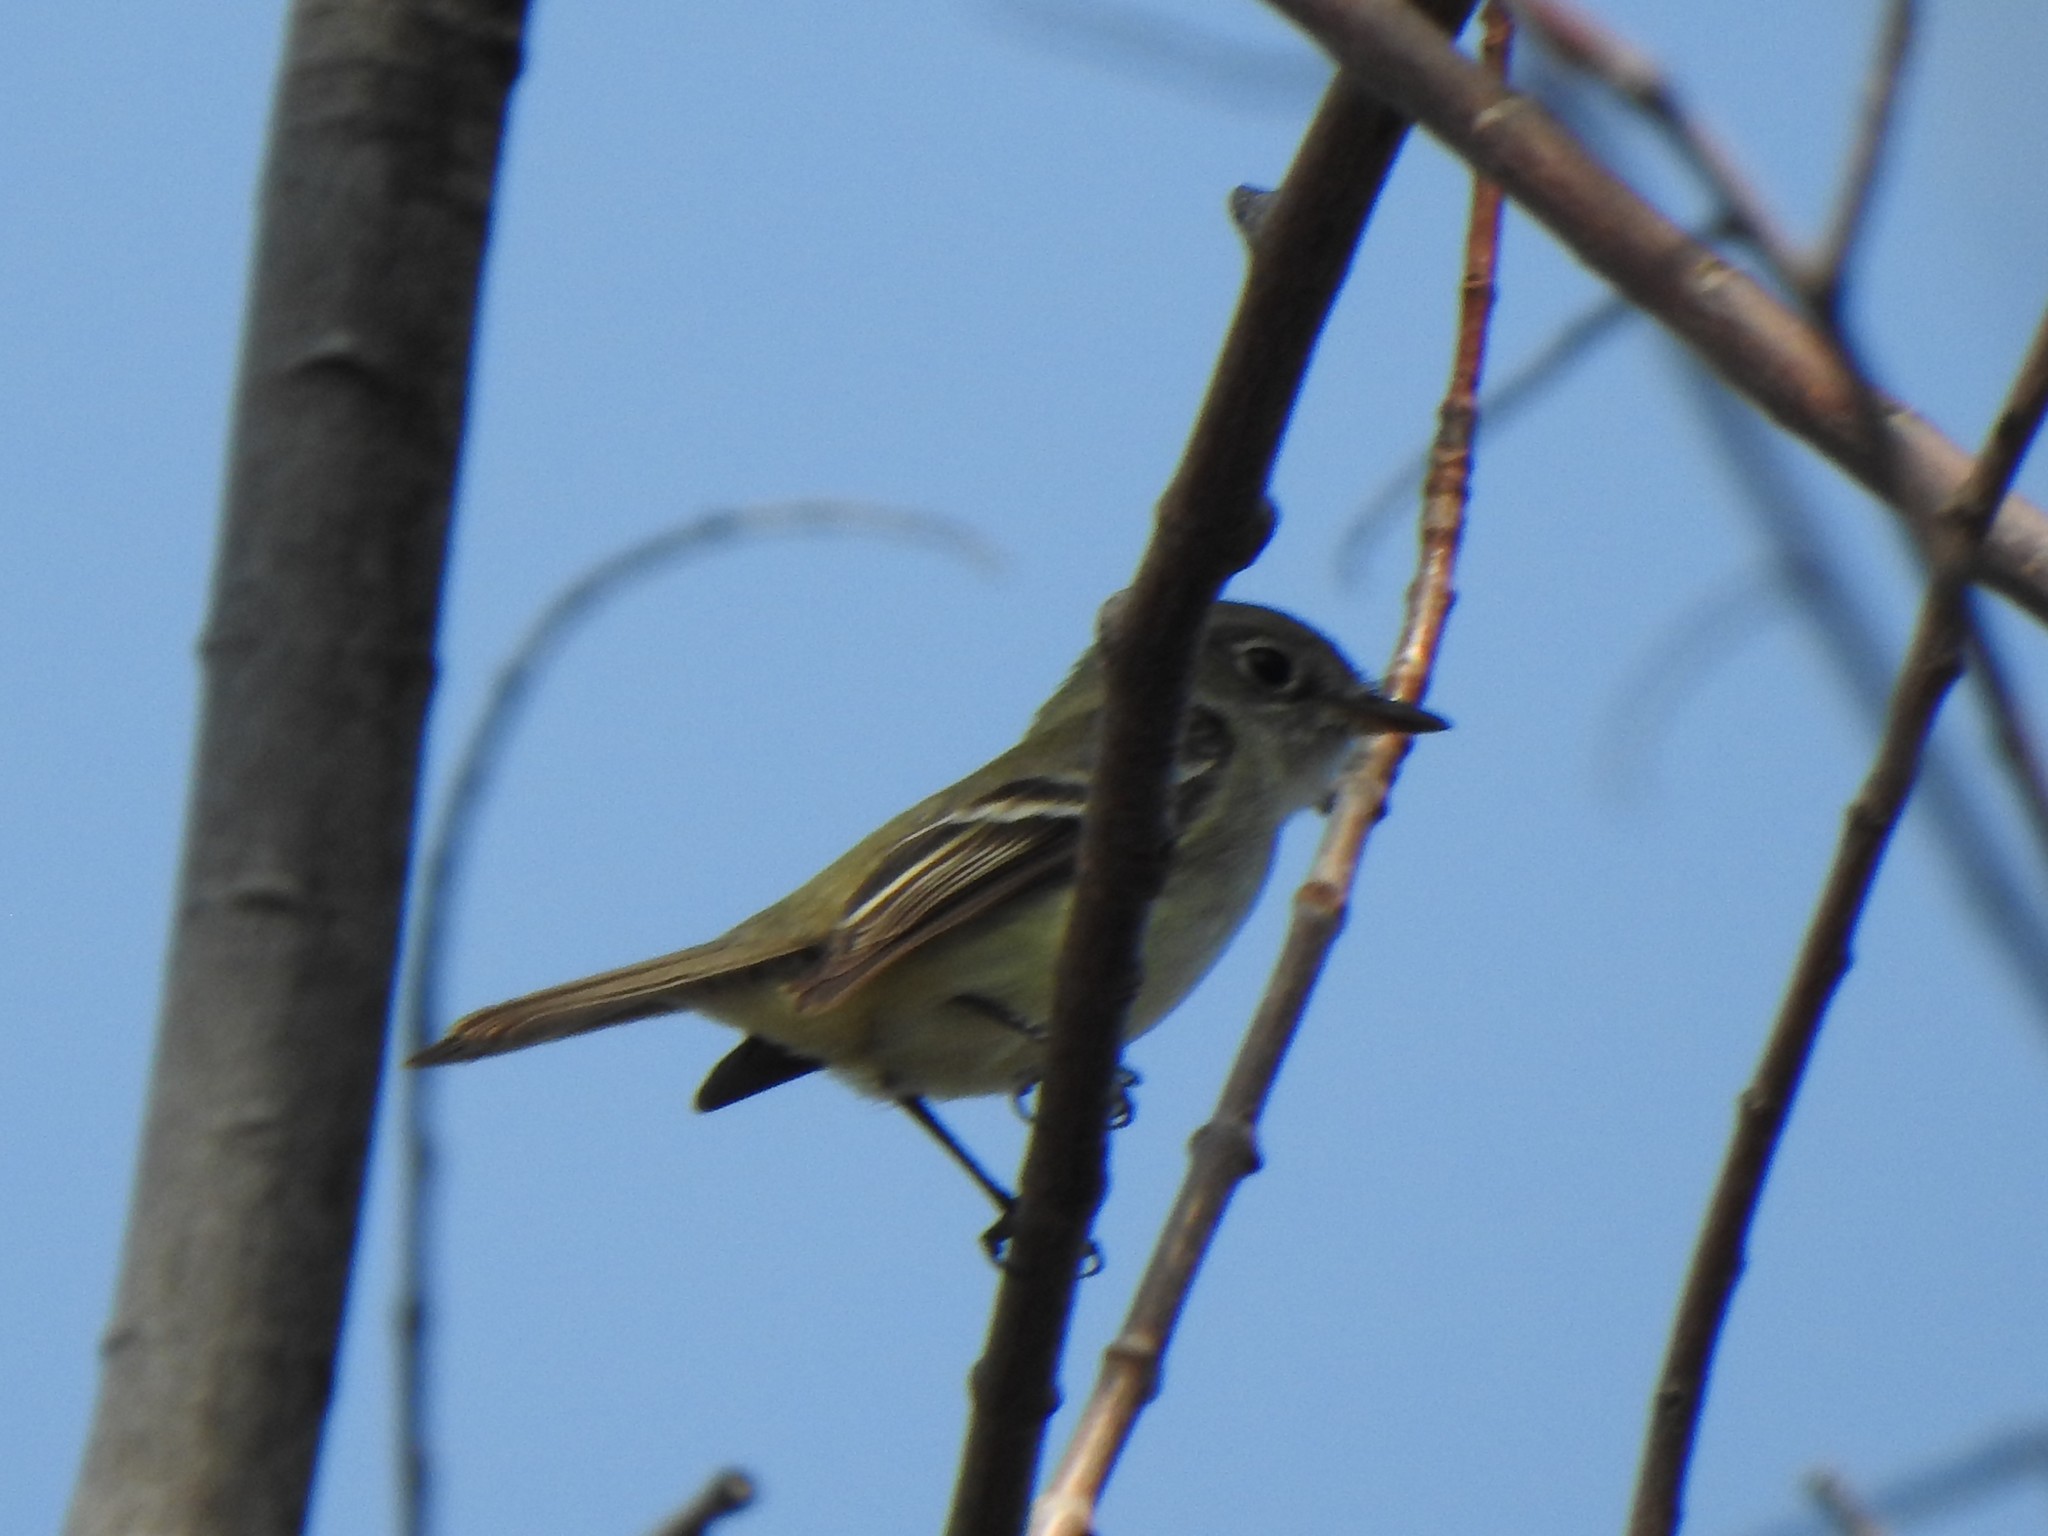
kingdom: Animalia
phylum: Chordata
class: Aves
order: Passeriformes
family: Tyrannidae
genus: Empidonax
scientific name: Empidonax minimus
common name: Least flycatcher
